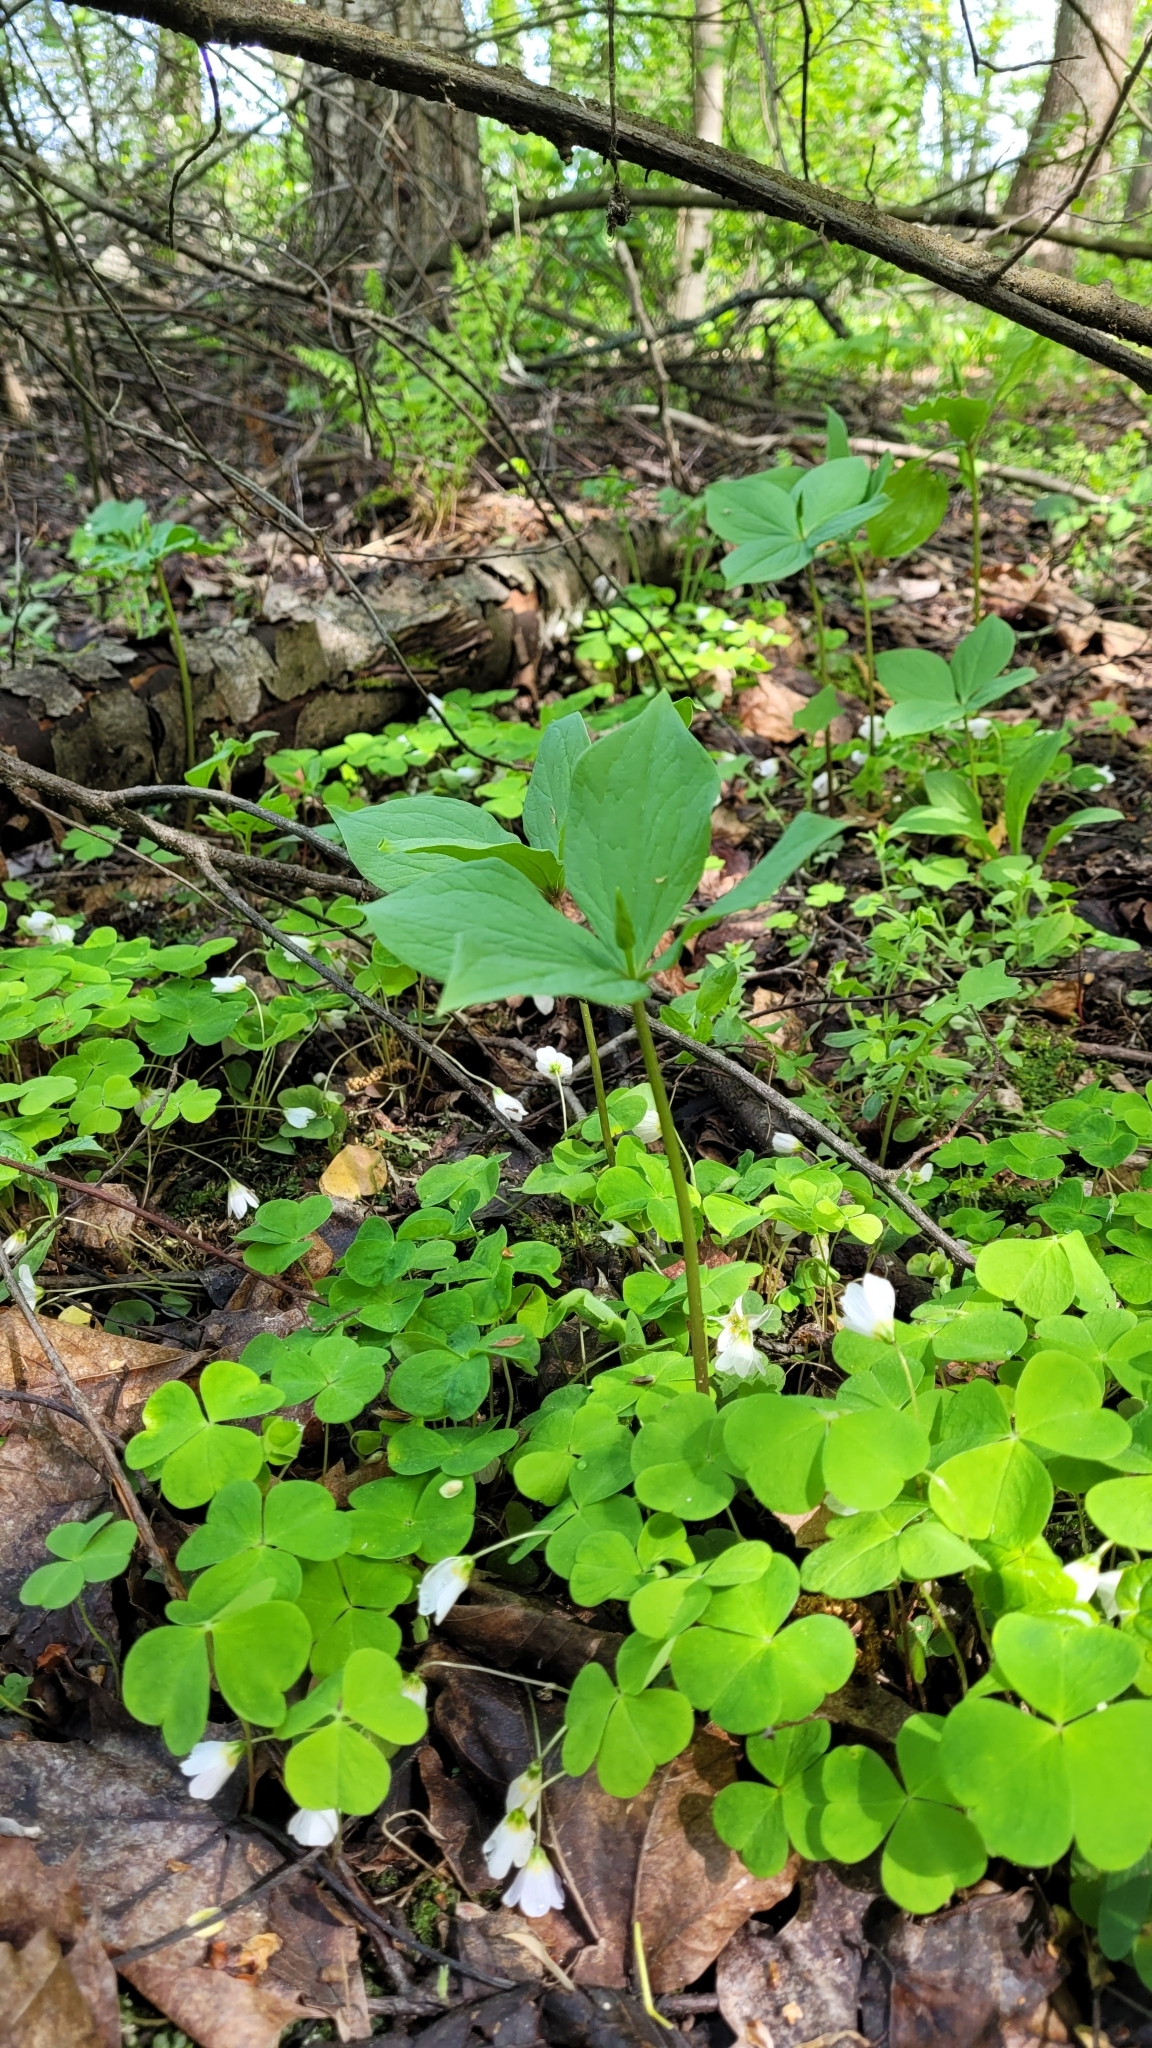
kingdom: Plantae
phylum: Tracheophyta
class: Magnoliopsida
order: Oxalidales
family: Oxalidaceae
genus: Oxalis
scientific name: Oxalis acetosella
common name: Wood-sorrel
